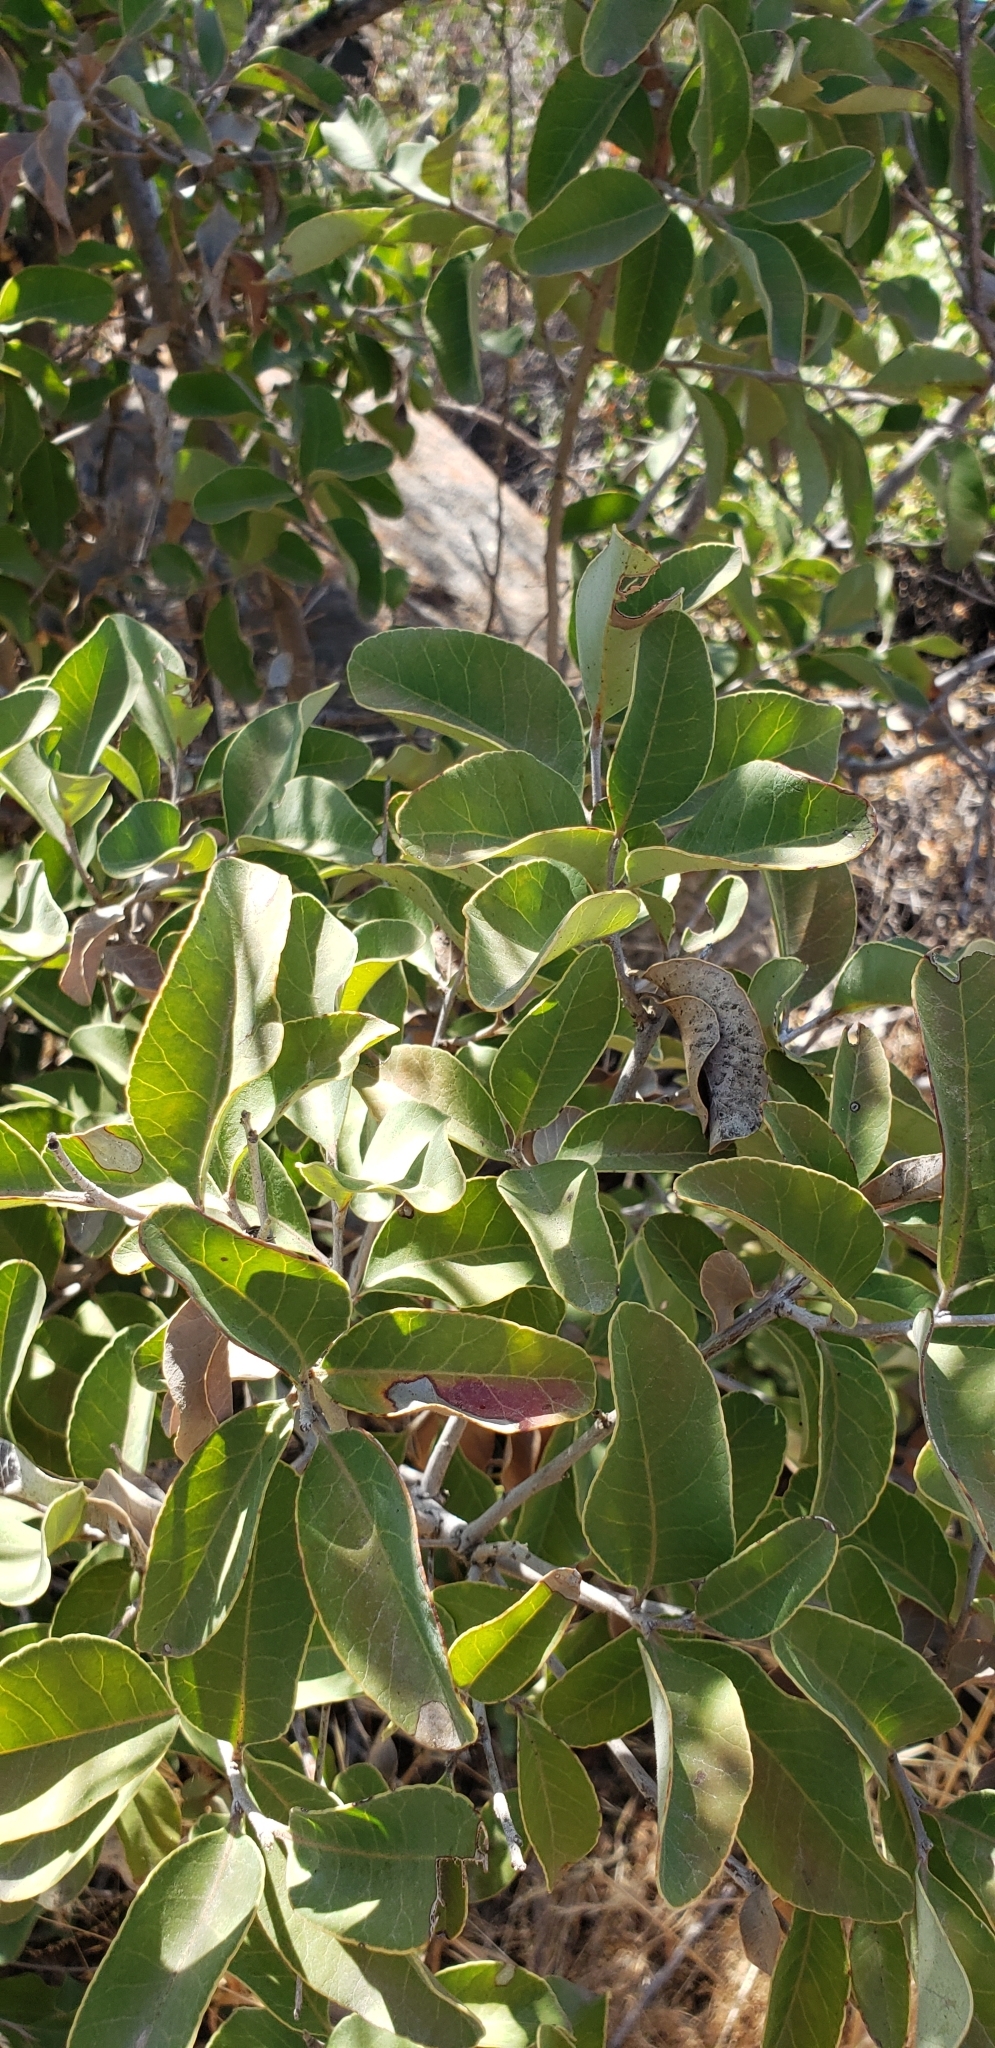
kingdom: Plantae
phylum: Tracheophyta
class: Magnoliopsida
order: Sapindales
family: Anacardiaceae
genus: Lithraea
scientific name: Lithraea caustica
